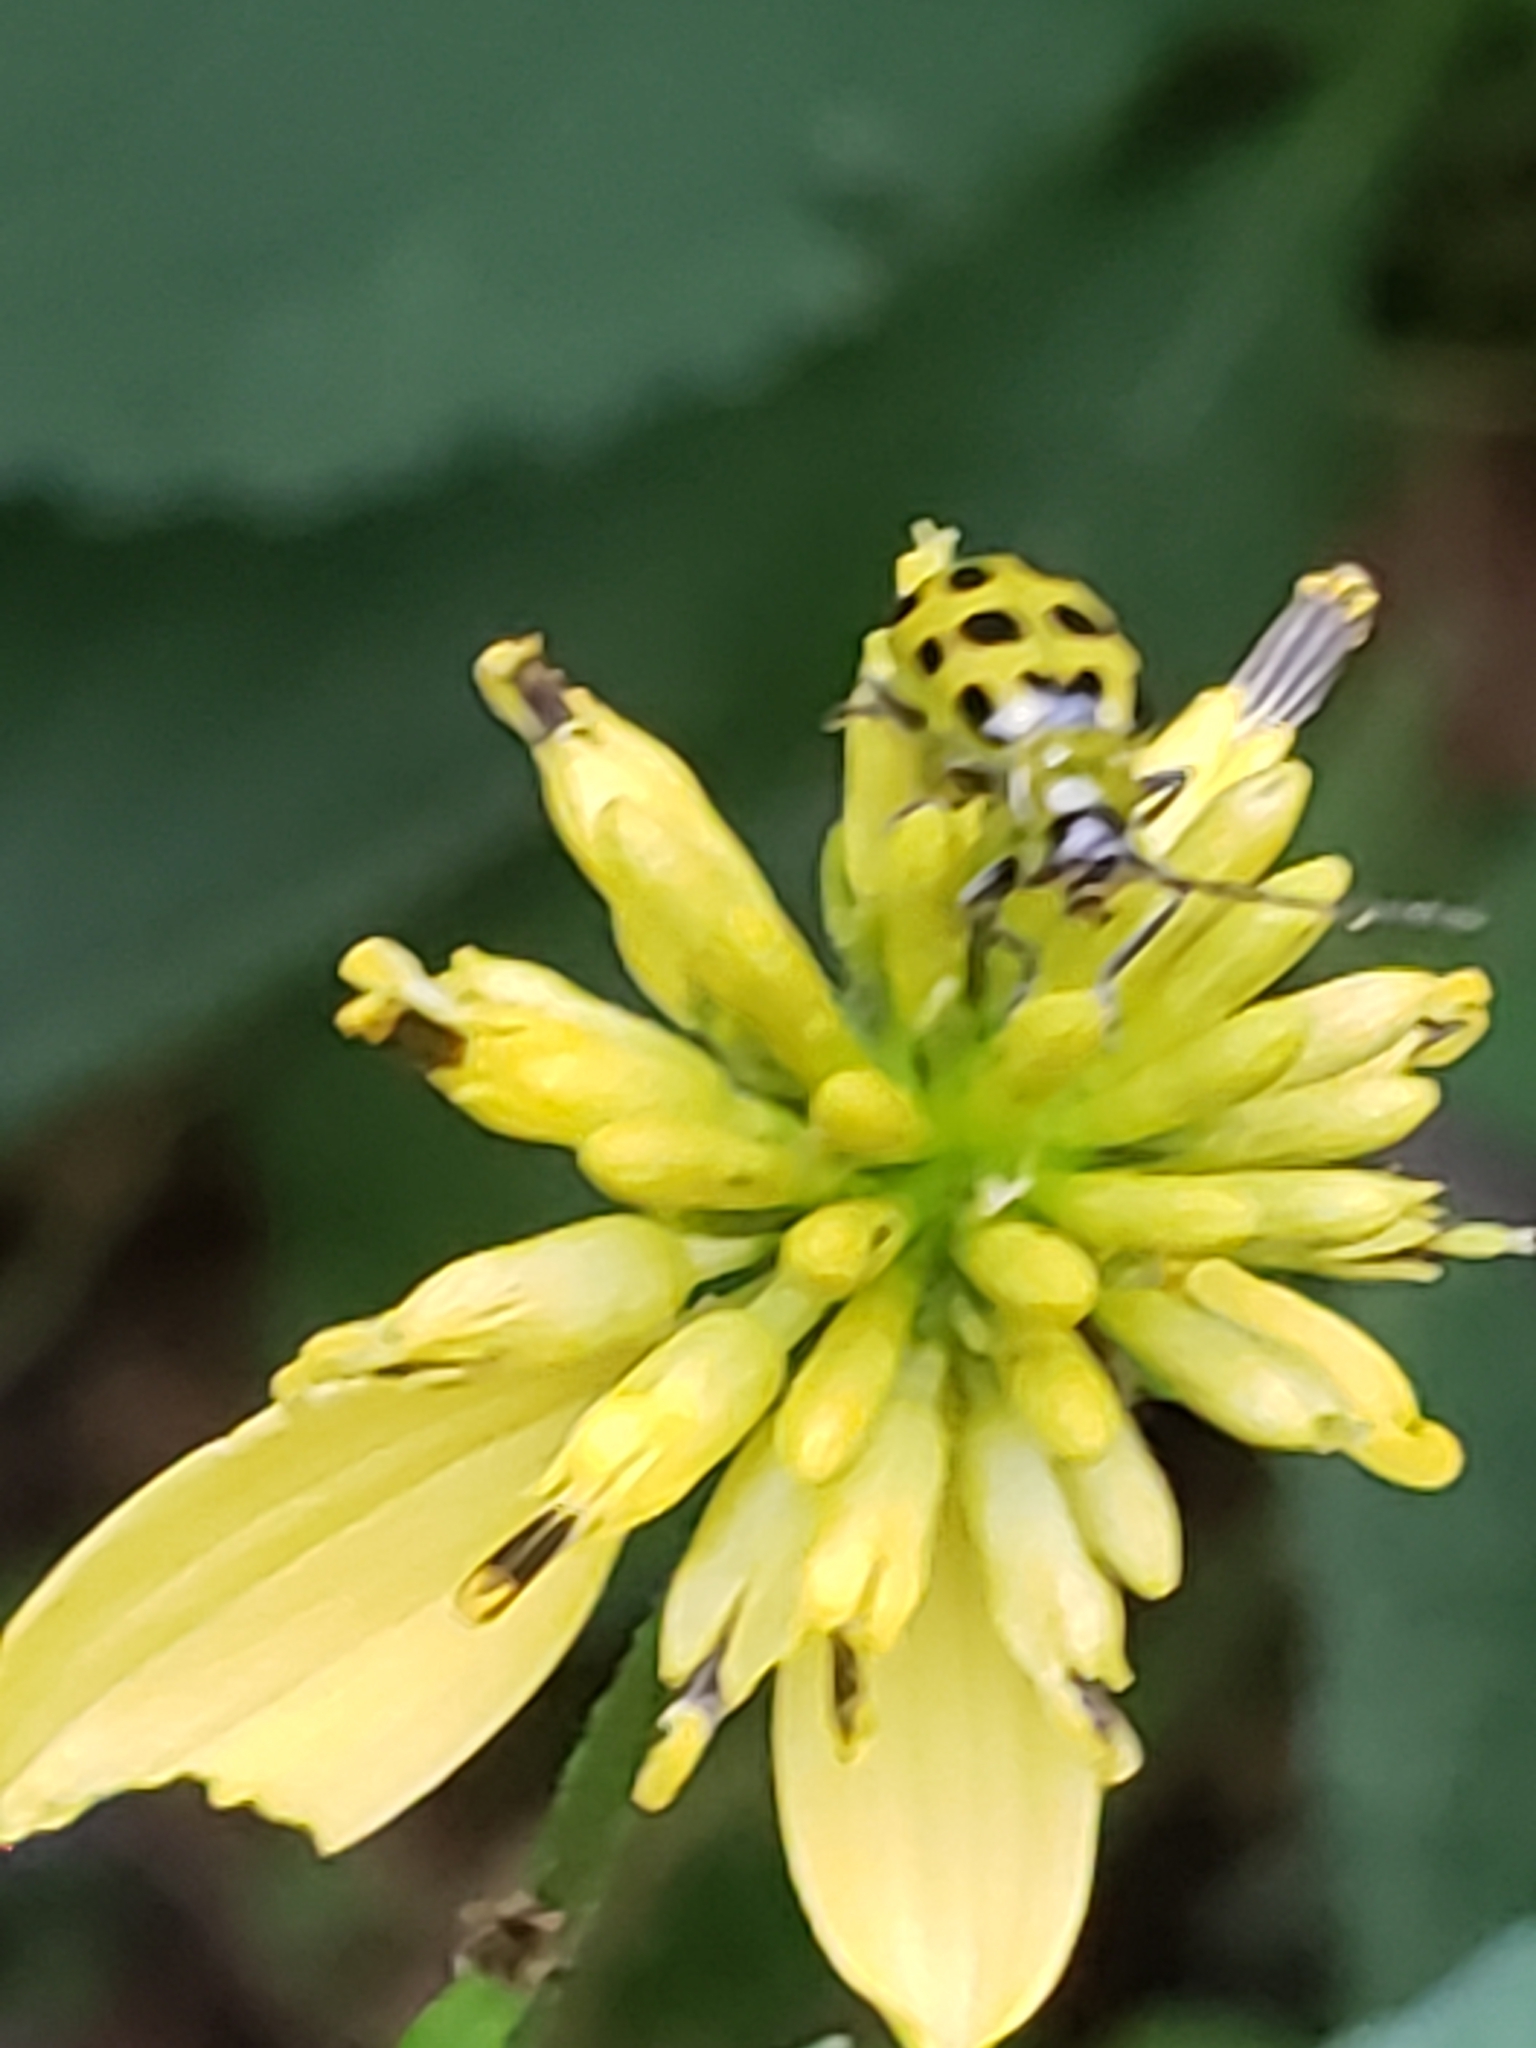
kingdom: Animalia
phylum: Arthropoda
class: Insecta
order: Coleoptera
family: Chrysomelidae
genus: Diabrotica
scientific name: Diabrotica undecimpunctata
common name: Spotted cucumber beetle
